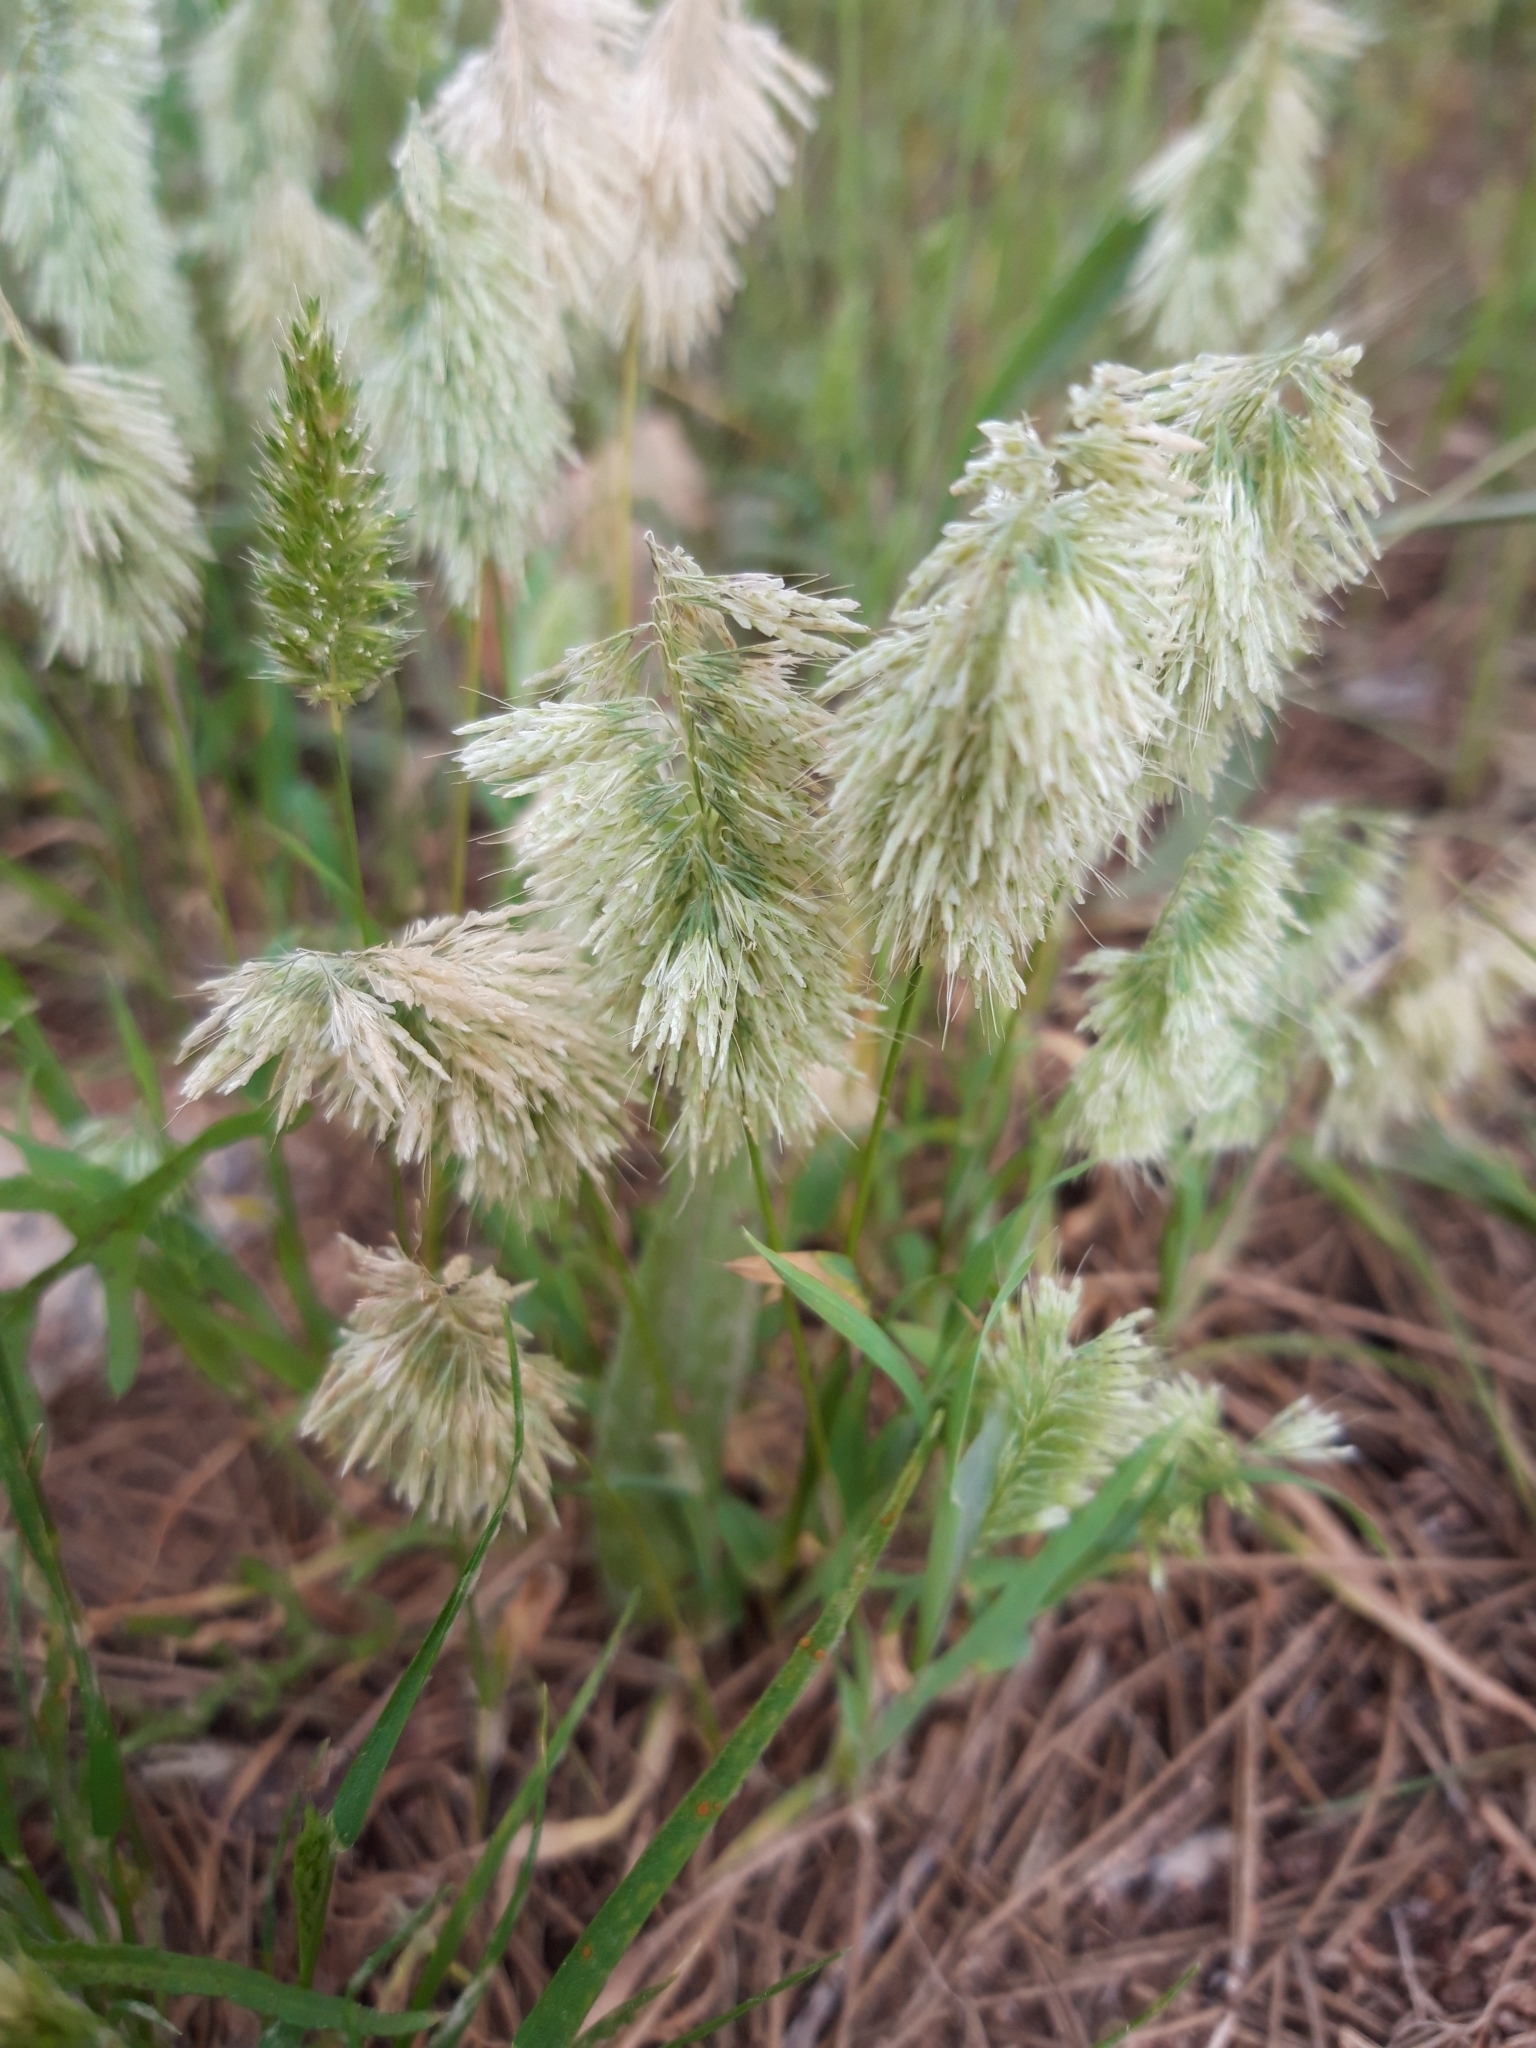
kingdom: Plantae
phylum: Tracheophyta
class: Liliopsida
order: Poales
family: Poaceae
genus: Lamarckia
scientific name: Lamarckia aurea
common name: Golden dog's-tail
